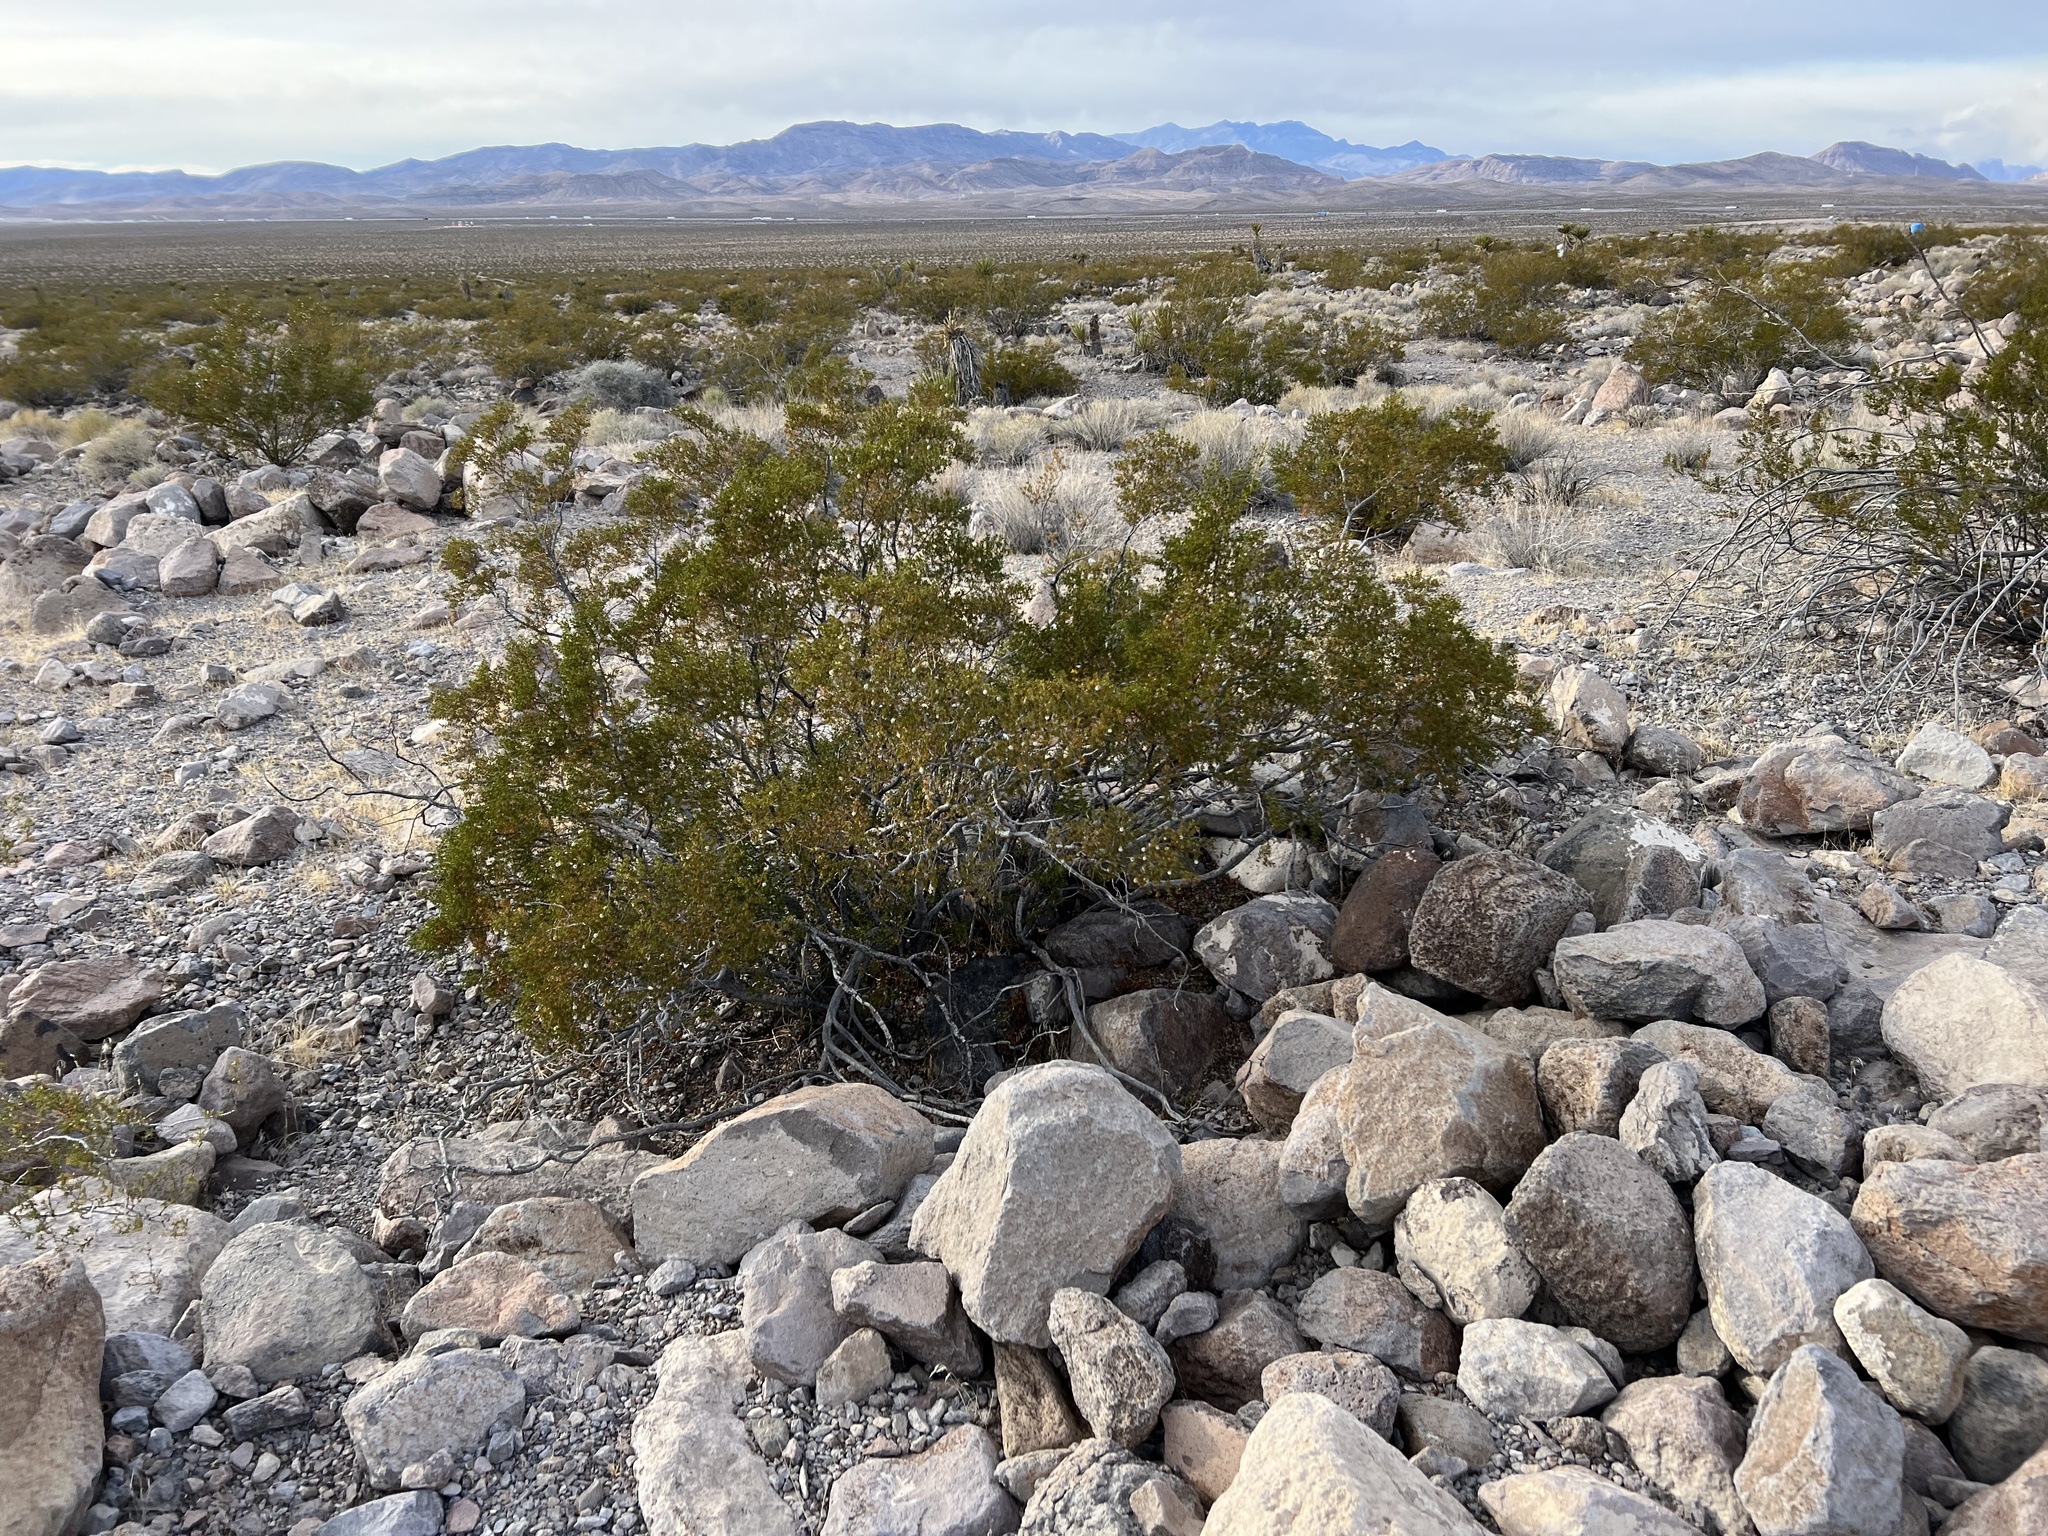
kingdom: Plantae
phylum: Tracheophyta
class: Magnoliopsida
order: Zygophyllales
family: Zygophyllaceae
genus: Larrea
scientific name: Larrea tridentata
